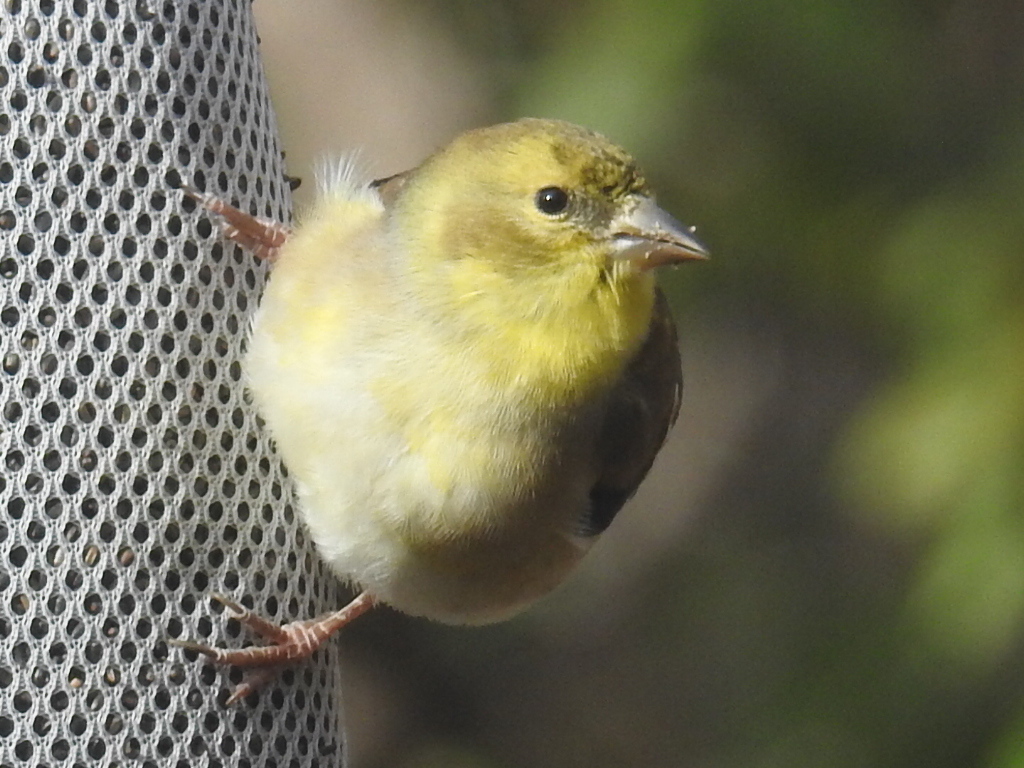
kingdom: Animalia
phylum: Chordata
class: Aves
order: Passeriformes
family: Fringillidae
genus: Spinus
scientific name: Spinus tristis
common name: American goldfinch
